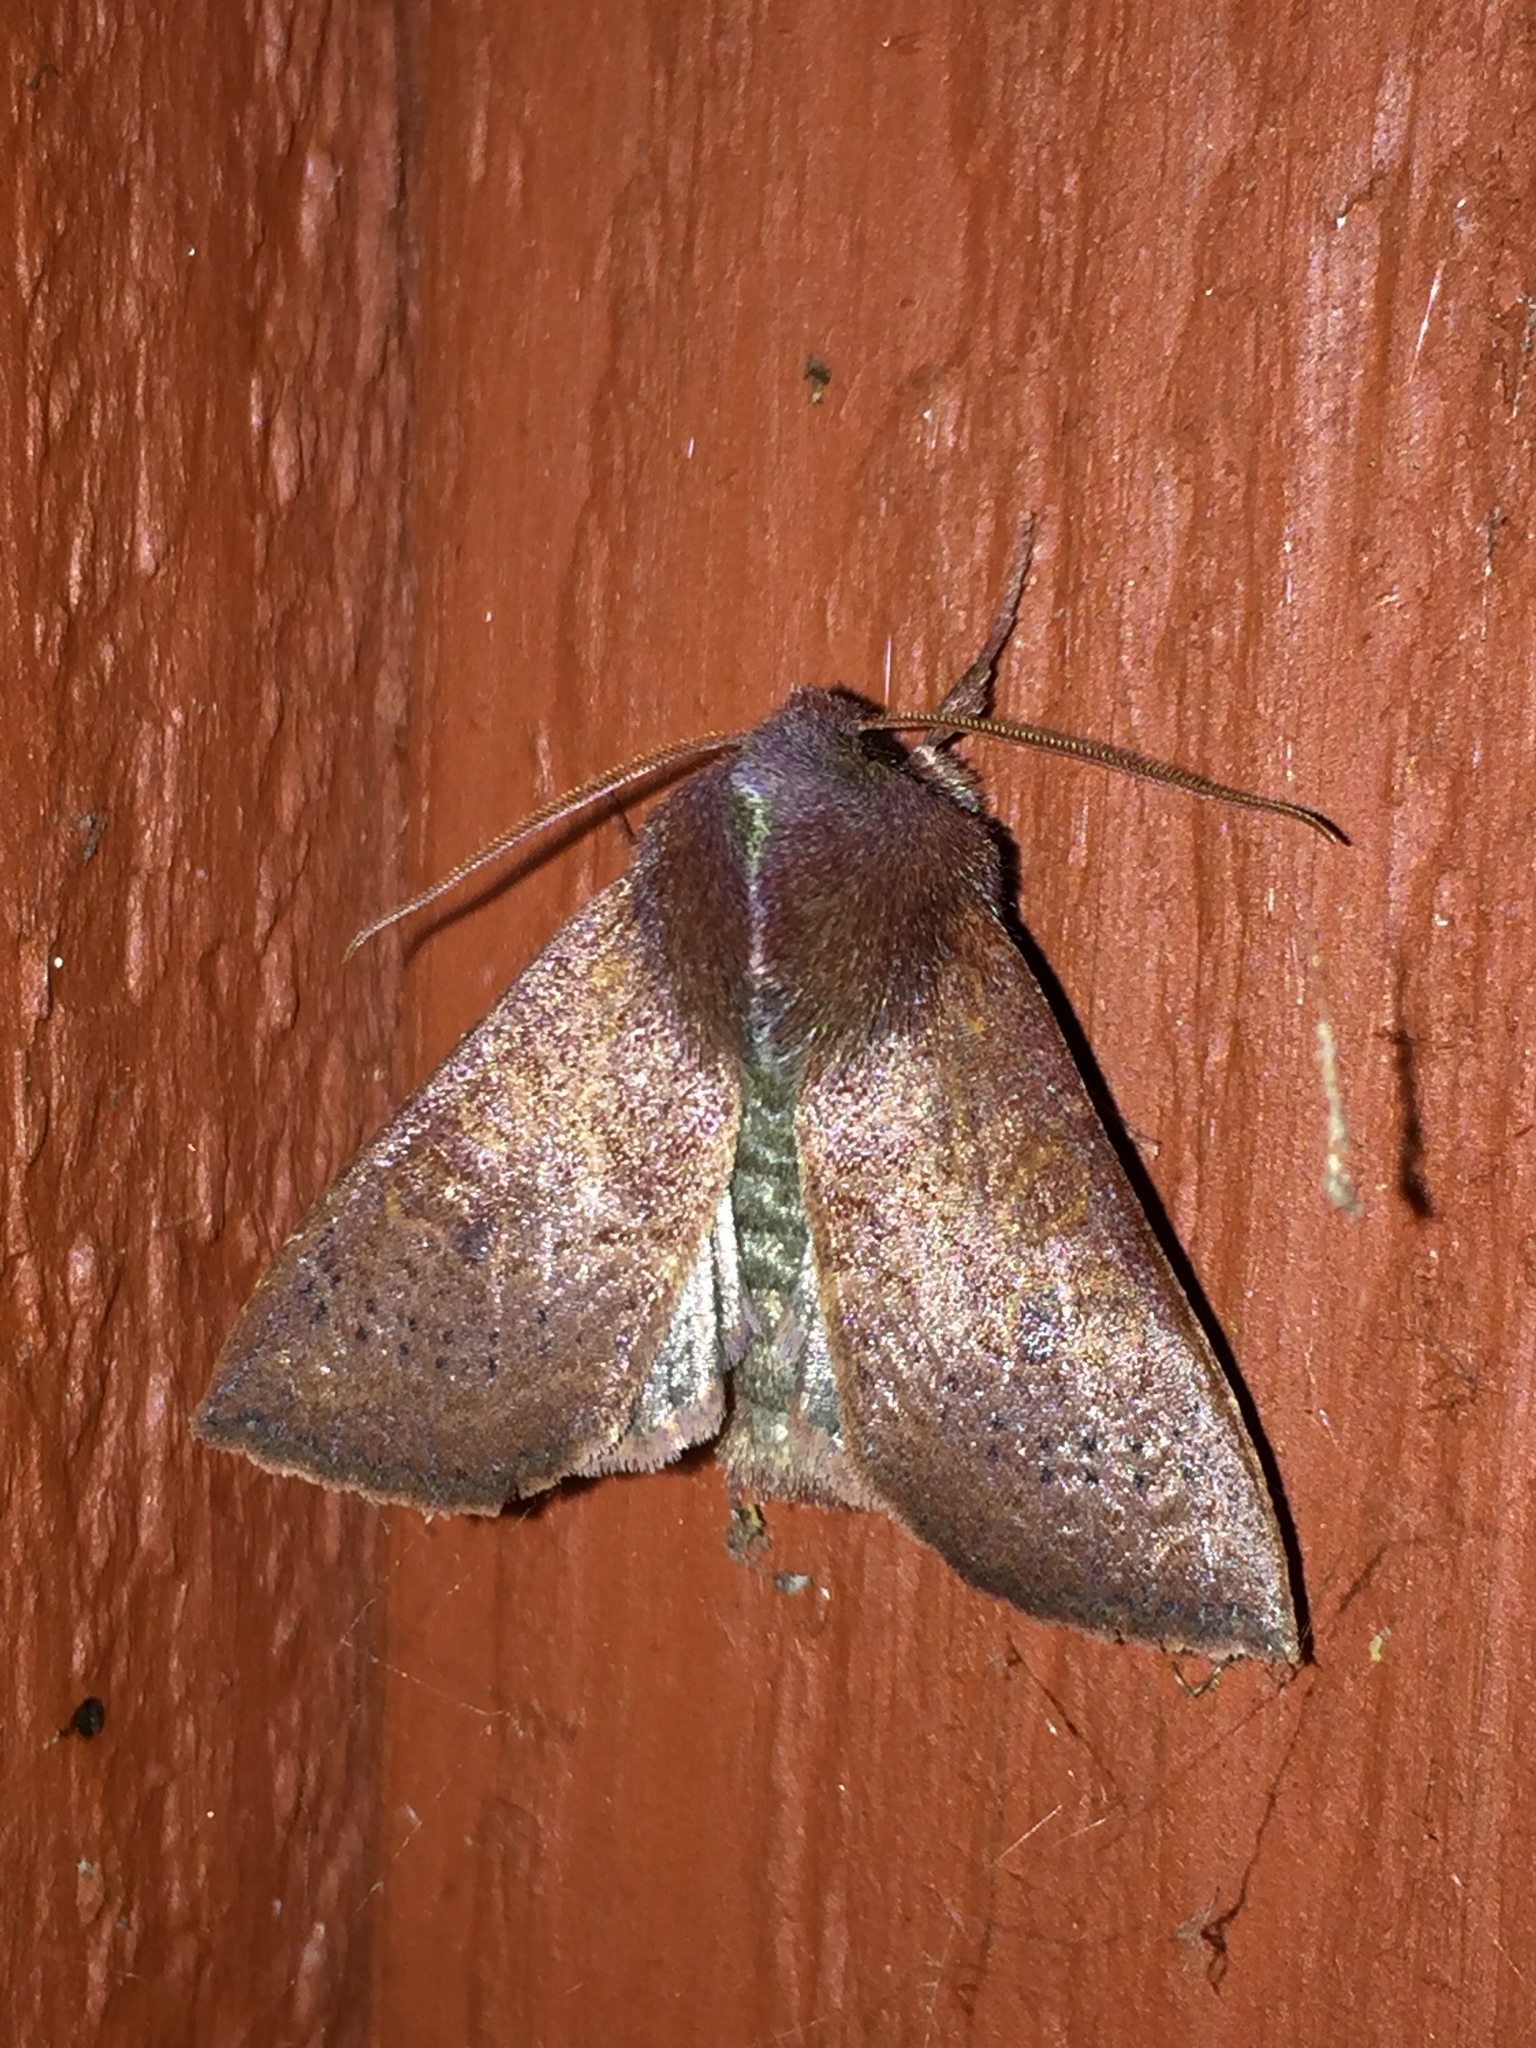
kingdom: Animalia
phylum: Arthropoda
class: Insecta
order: Lepidoptera
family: Noctuidae
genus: Orthosia
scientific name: Orthosia transparens
